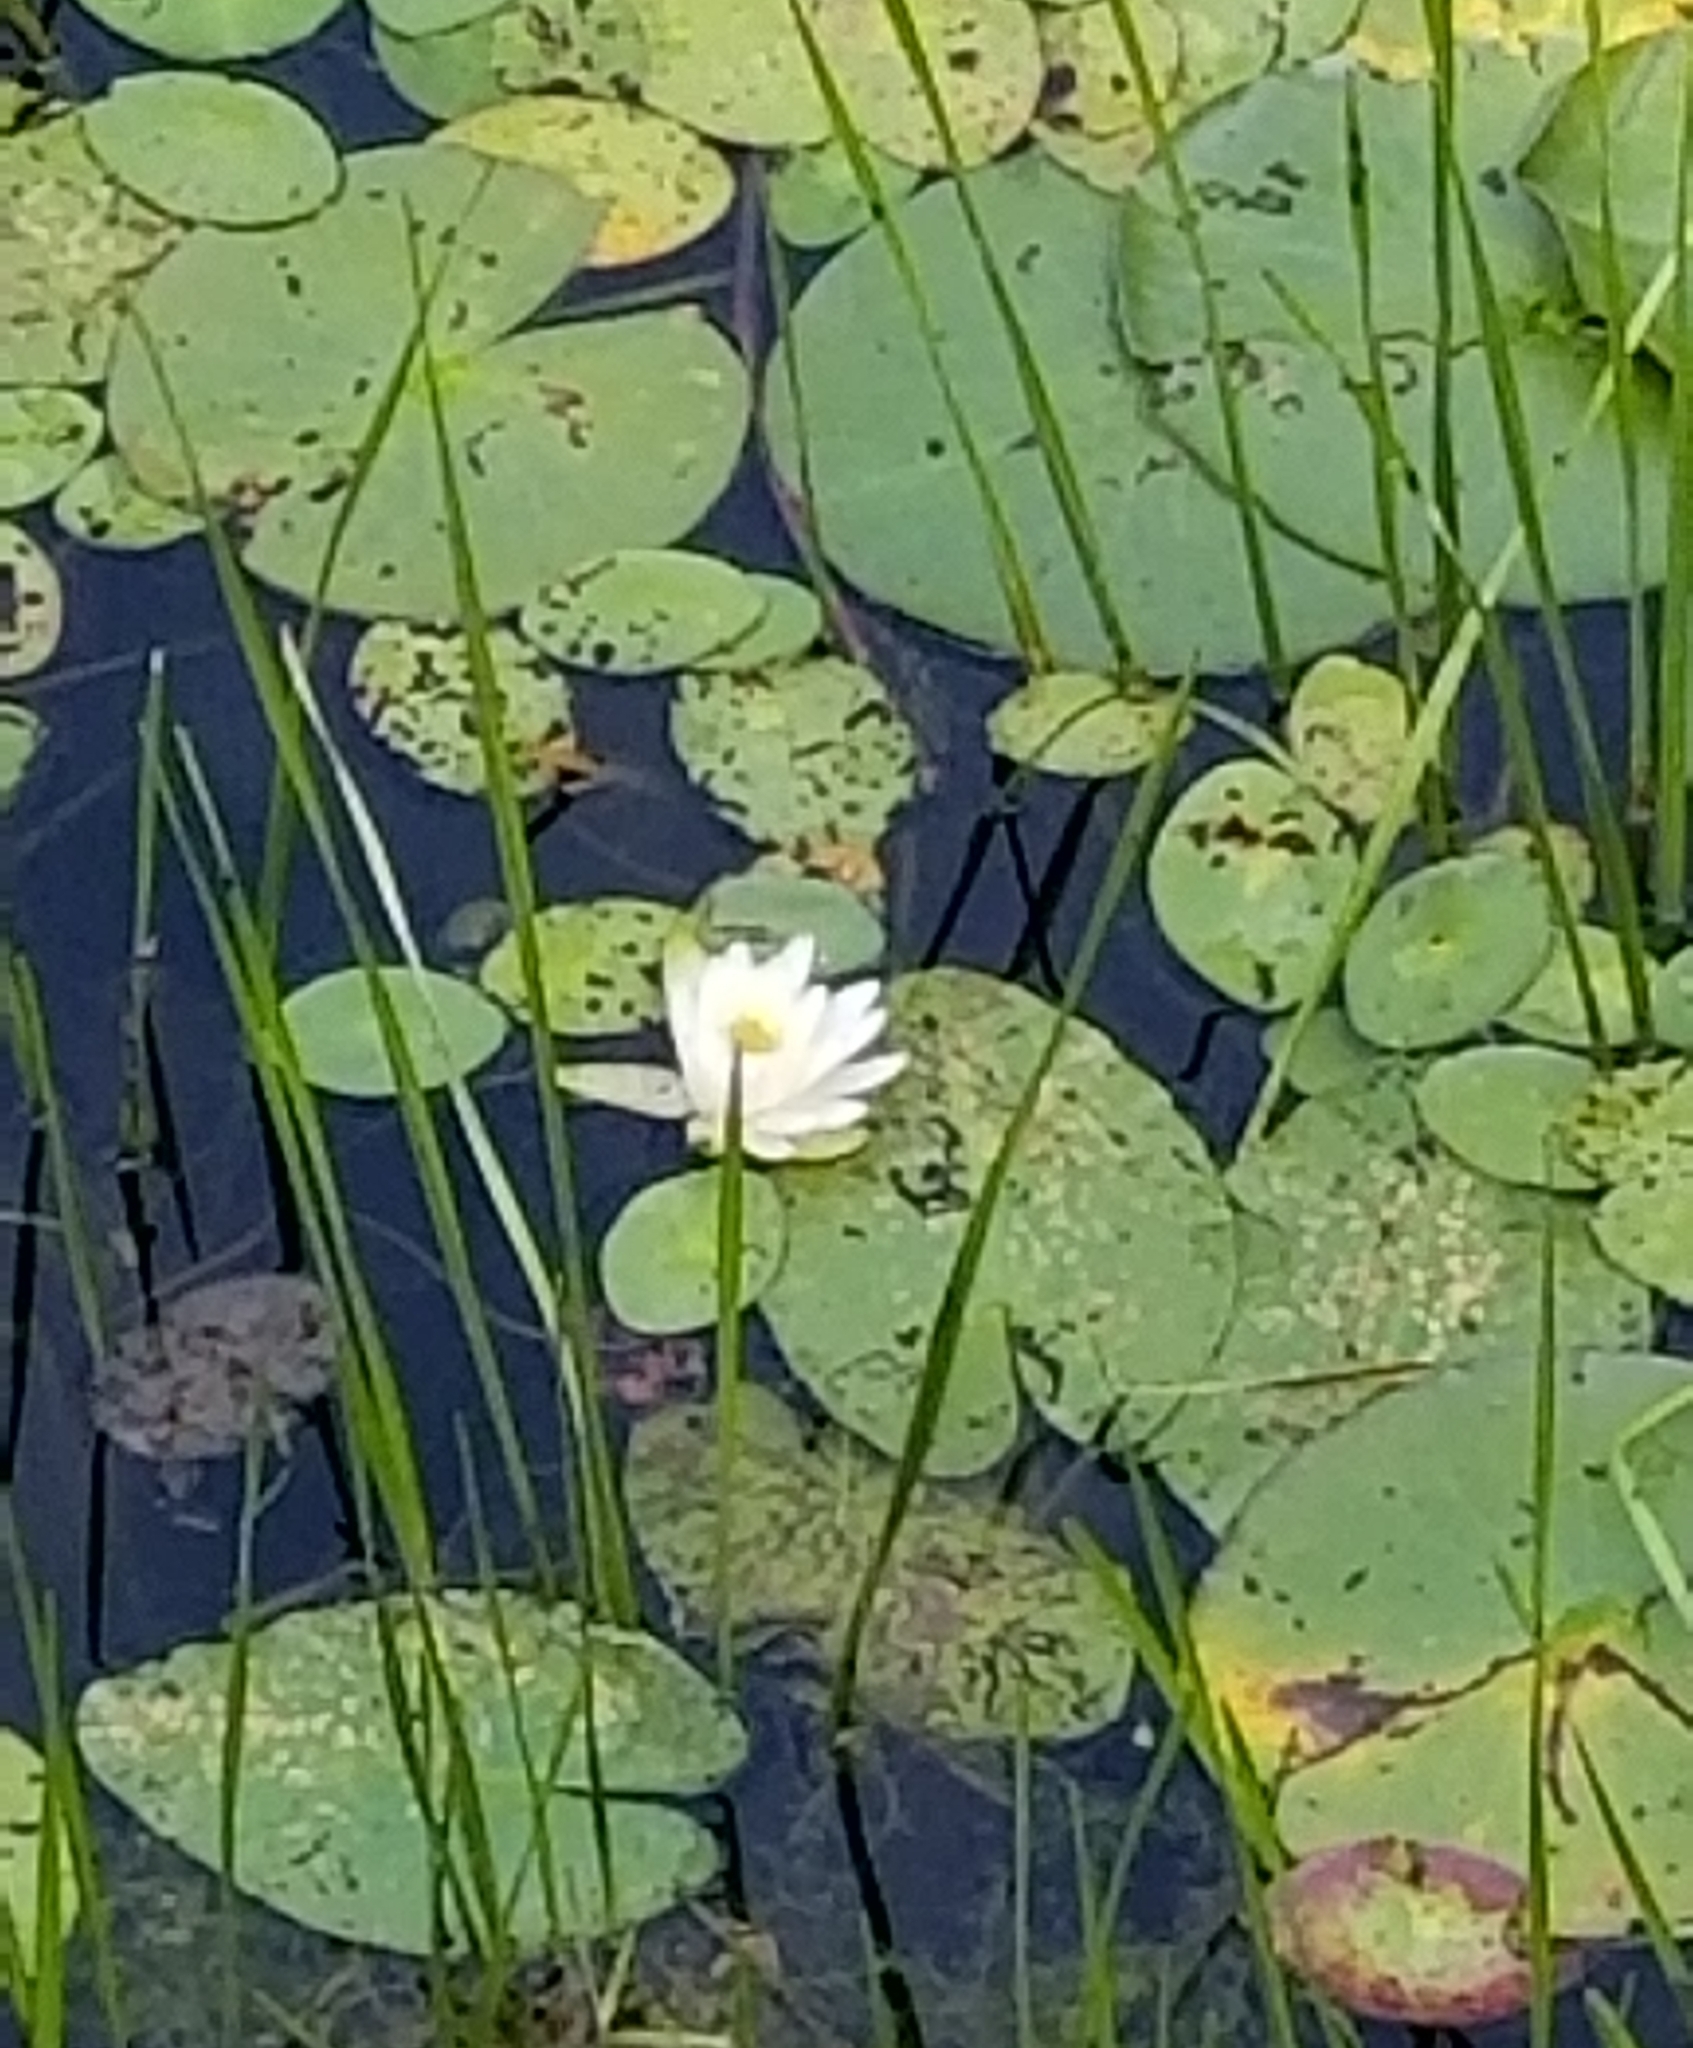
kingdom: Plantae
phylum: Tracheophyta
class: Magnoliopsida
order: Nymphaeales
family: Nymphaeaceae
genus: Nymphaea
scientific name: Nymphaea odorata
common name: Fragrant water-lily
